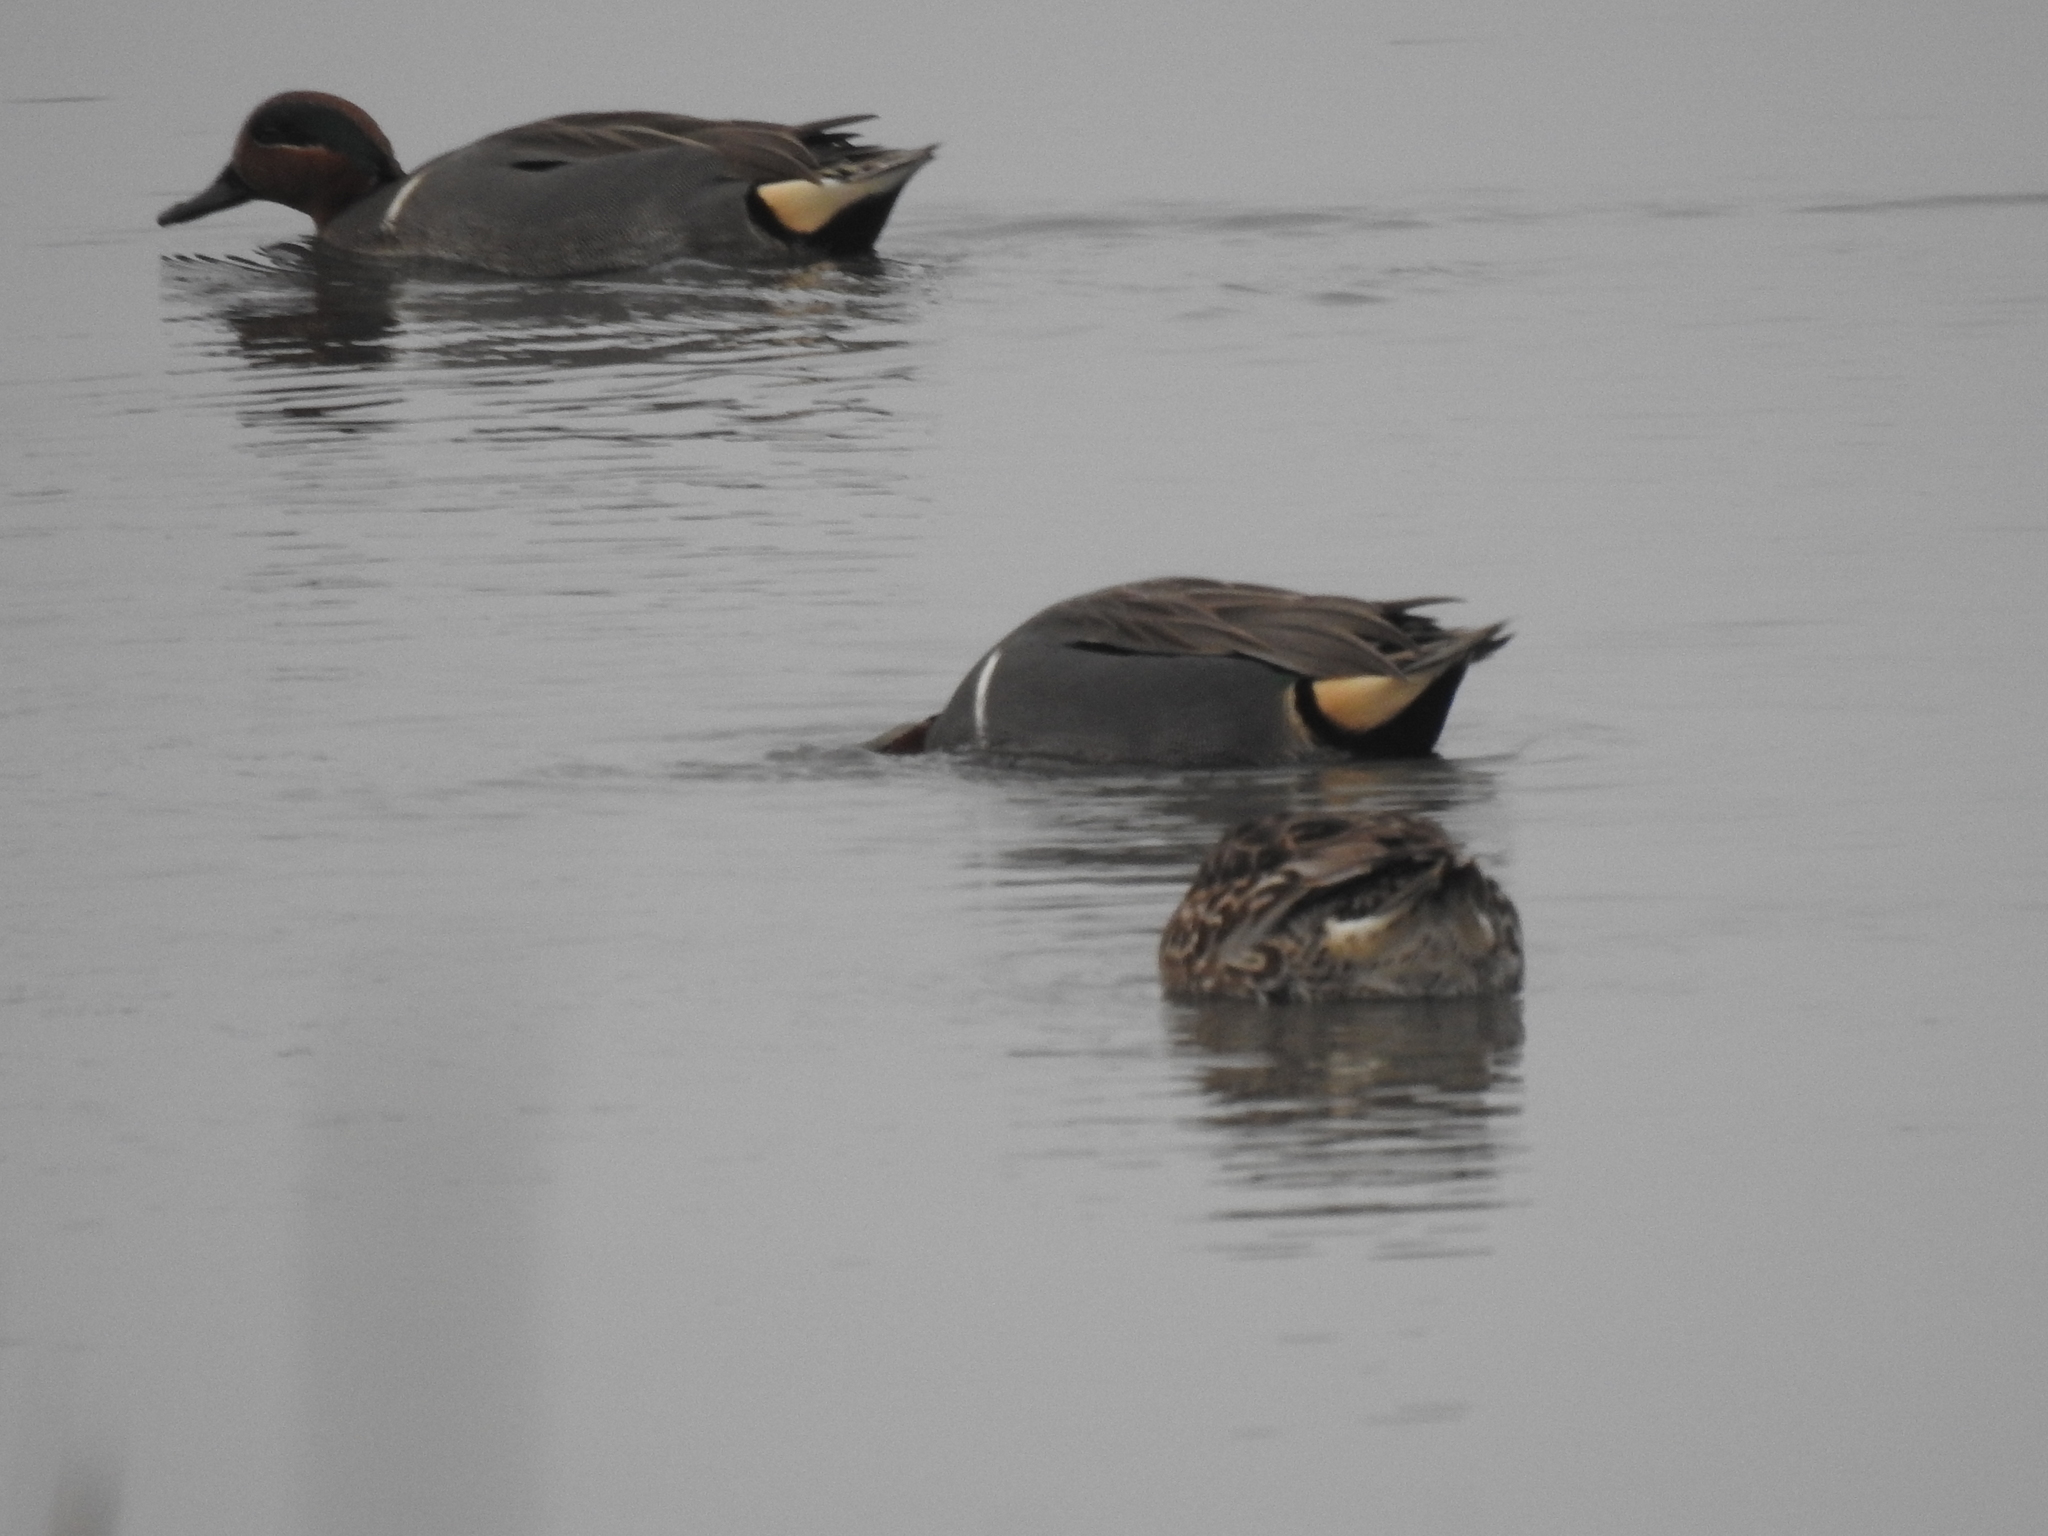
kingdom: Animalia
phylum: Chordata
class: Aves
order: Anseriformes
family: Anatidae
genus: Anas
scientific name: Anas crecca
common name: Eurasian teal
